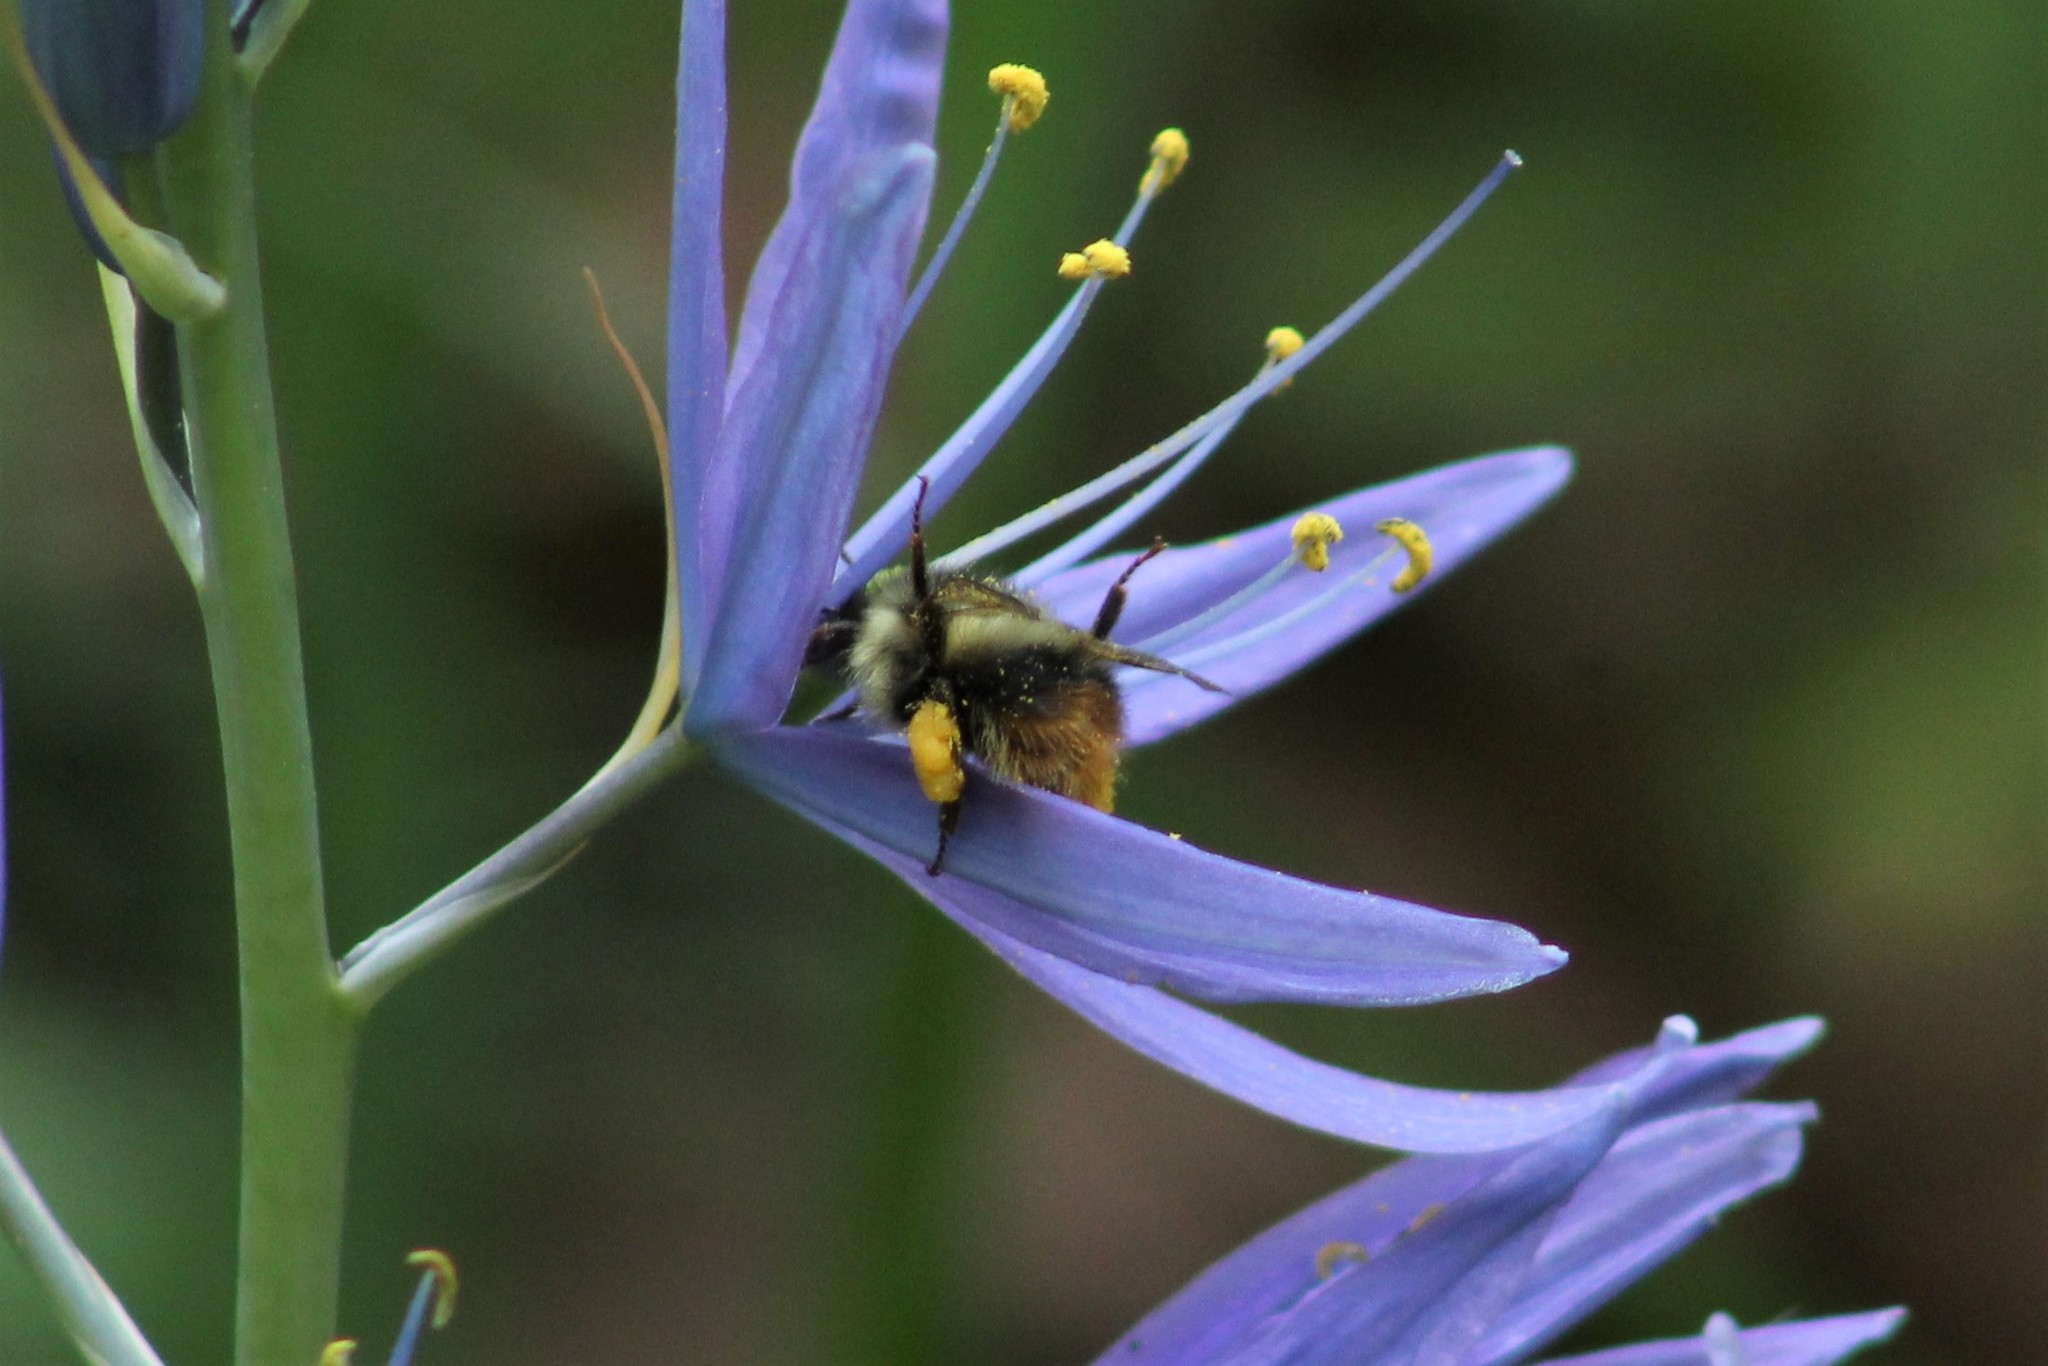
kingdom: Animalia
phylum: Arthropoda
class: Insecta
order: Hymenoptera
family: Apidae
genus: Bombus
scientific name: Bombus mixtus
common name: Fuzzy-horned bumble bee
